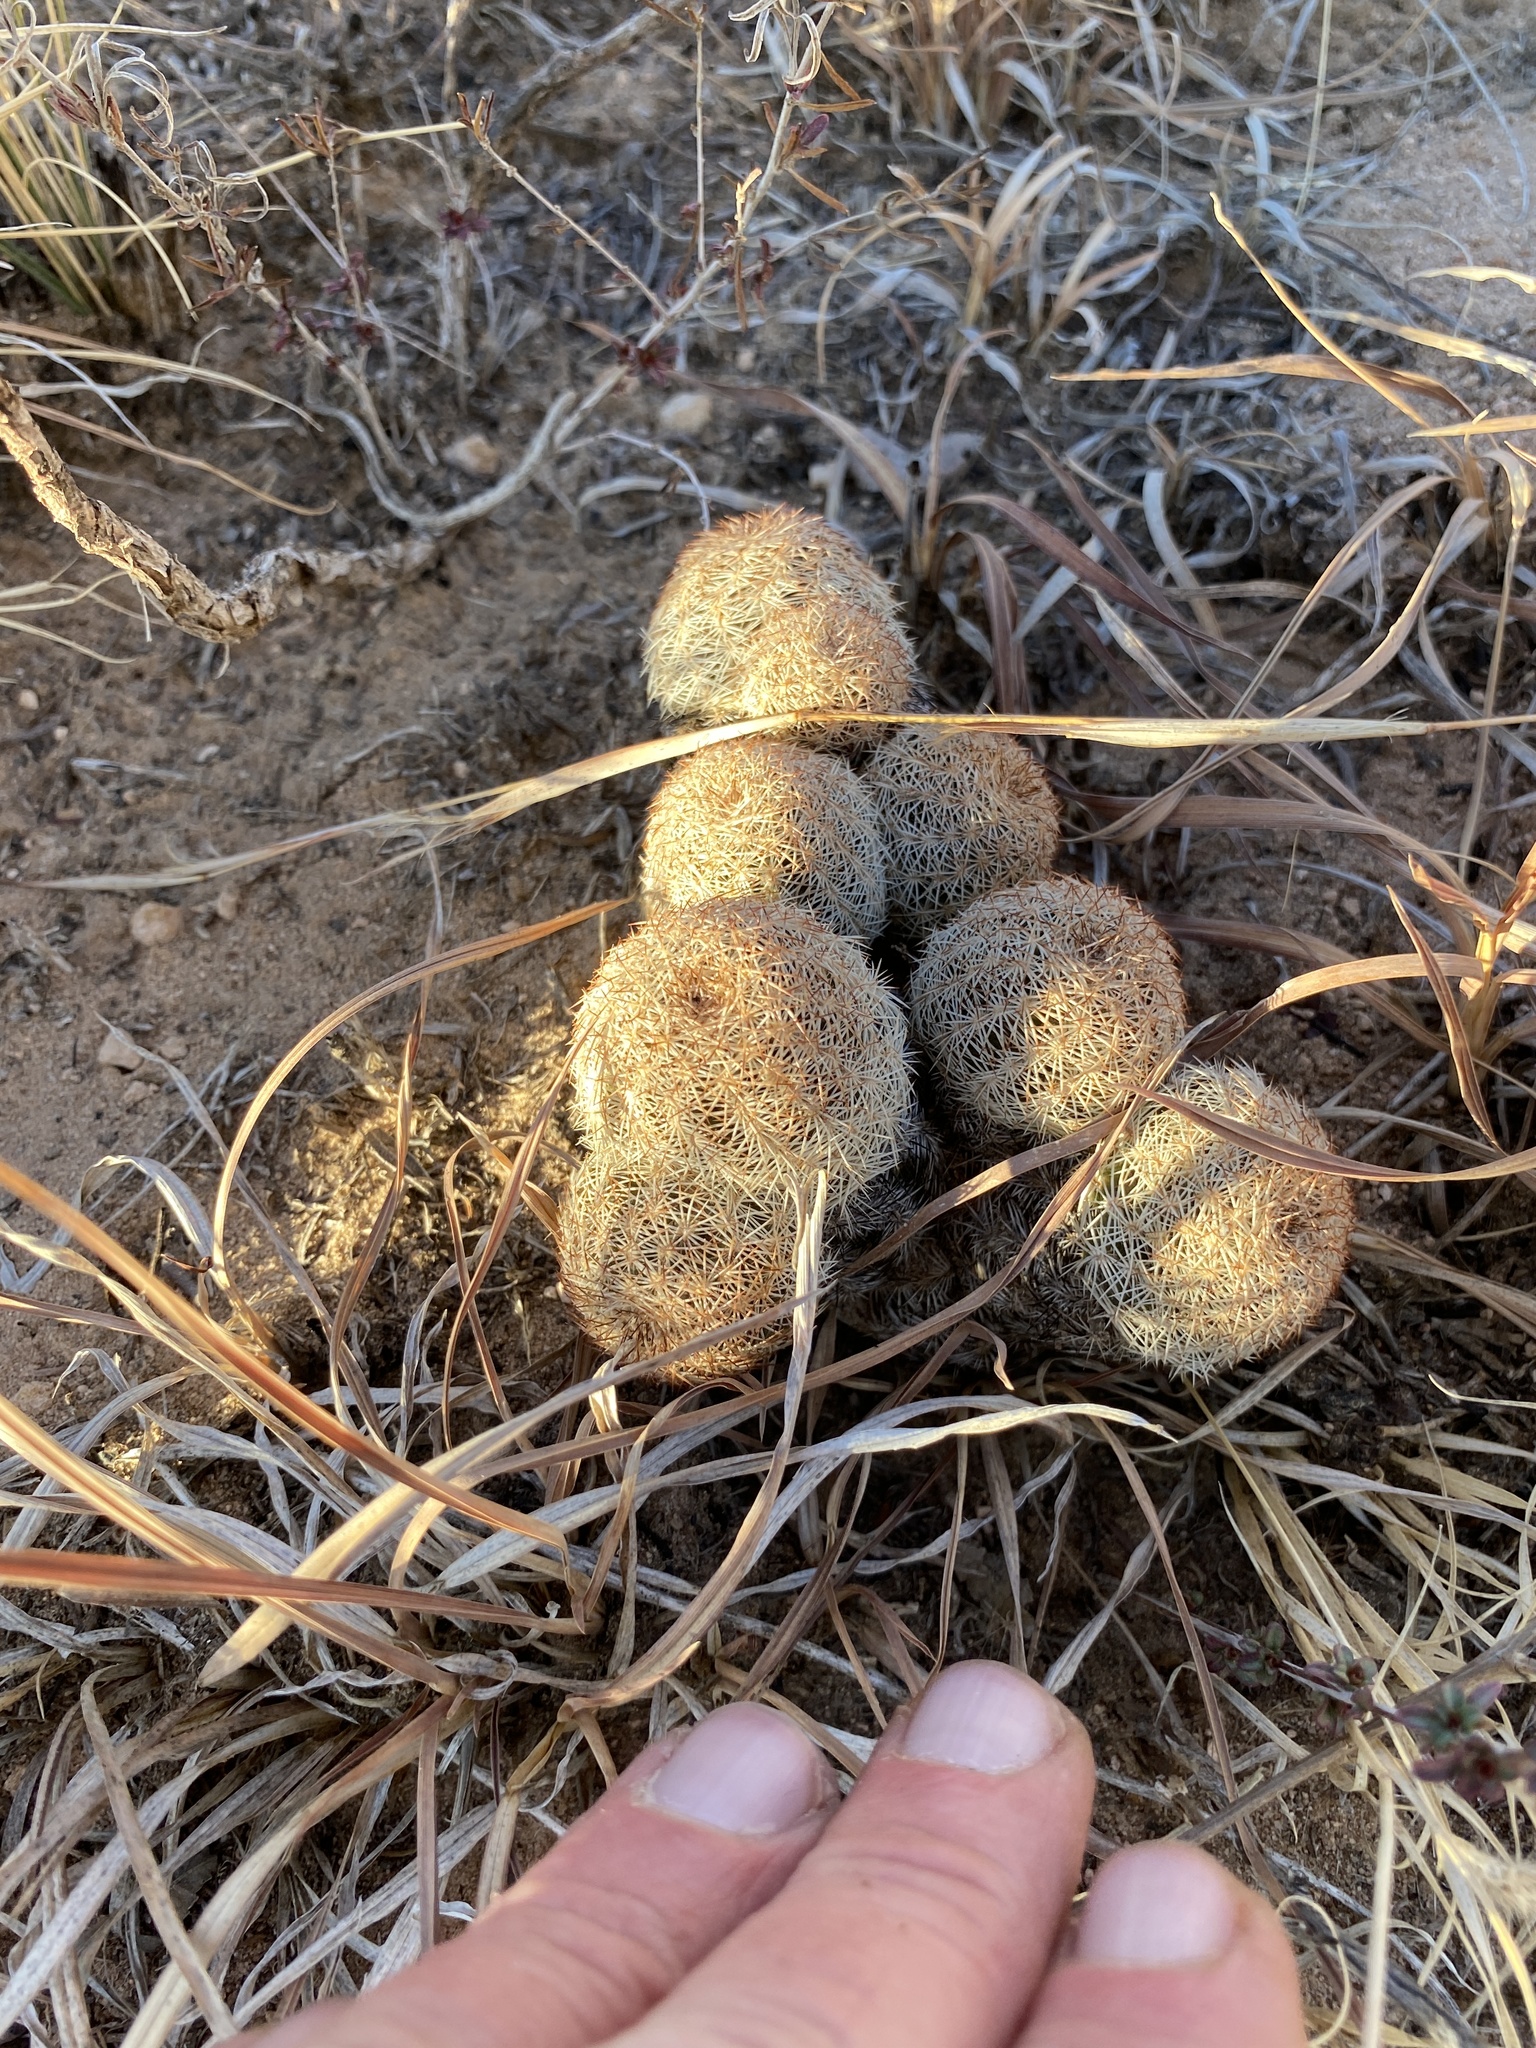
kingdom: Plantae
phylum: Tracheophyta
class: Magnoliopsida
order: Caryophyllales
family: Cactaceae
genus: Echinocereus
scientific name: Echinocereus reichenbachii
